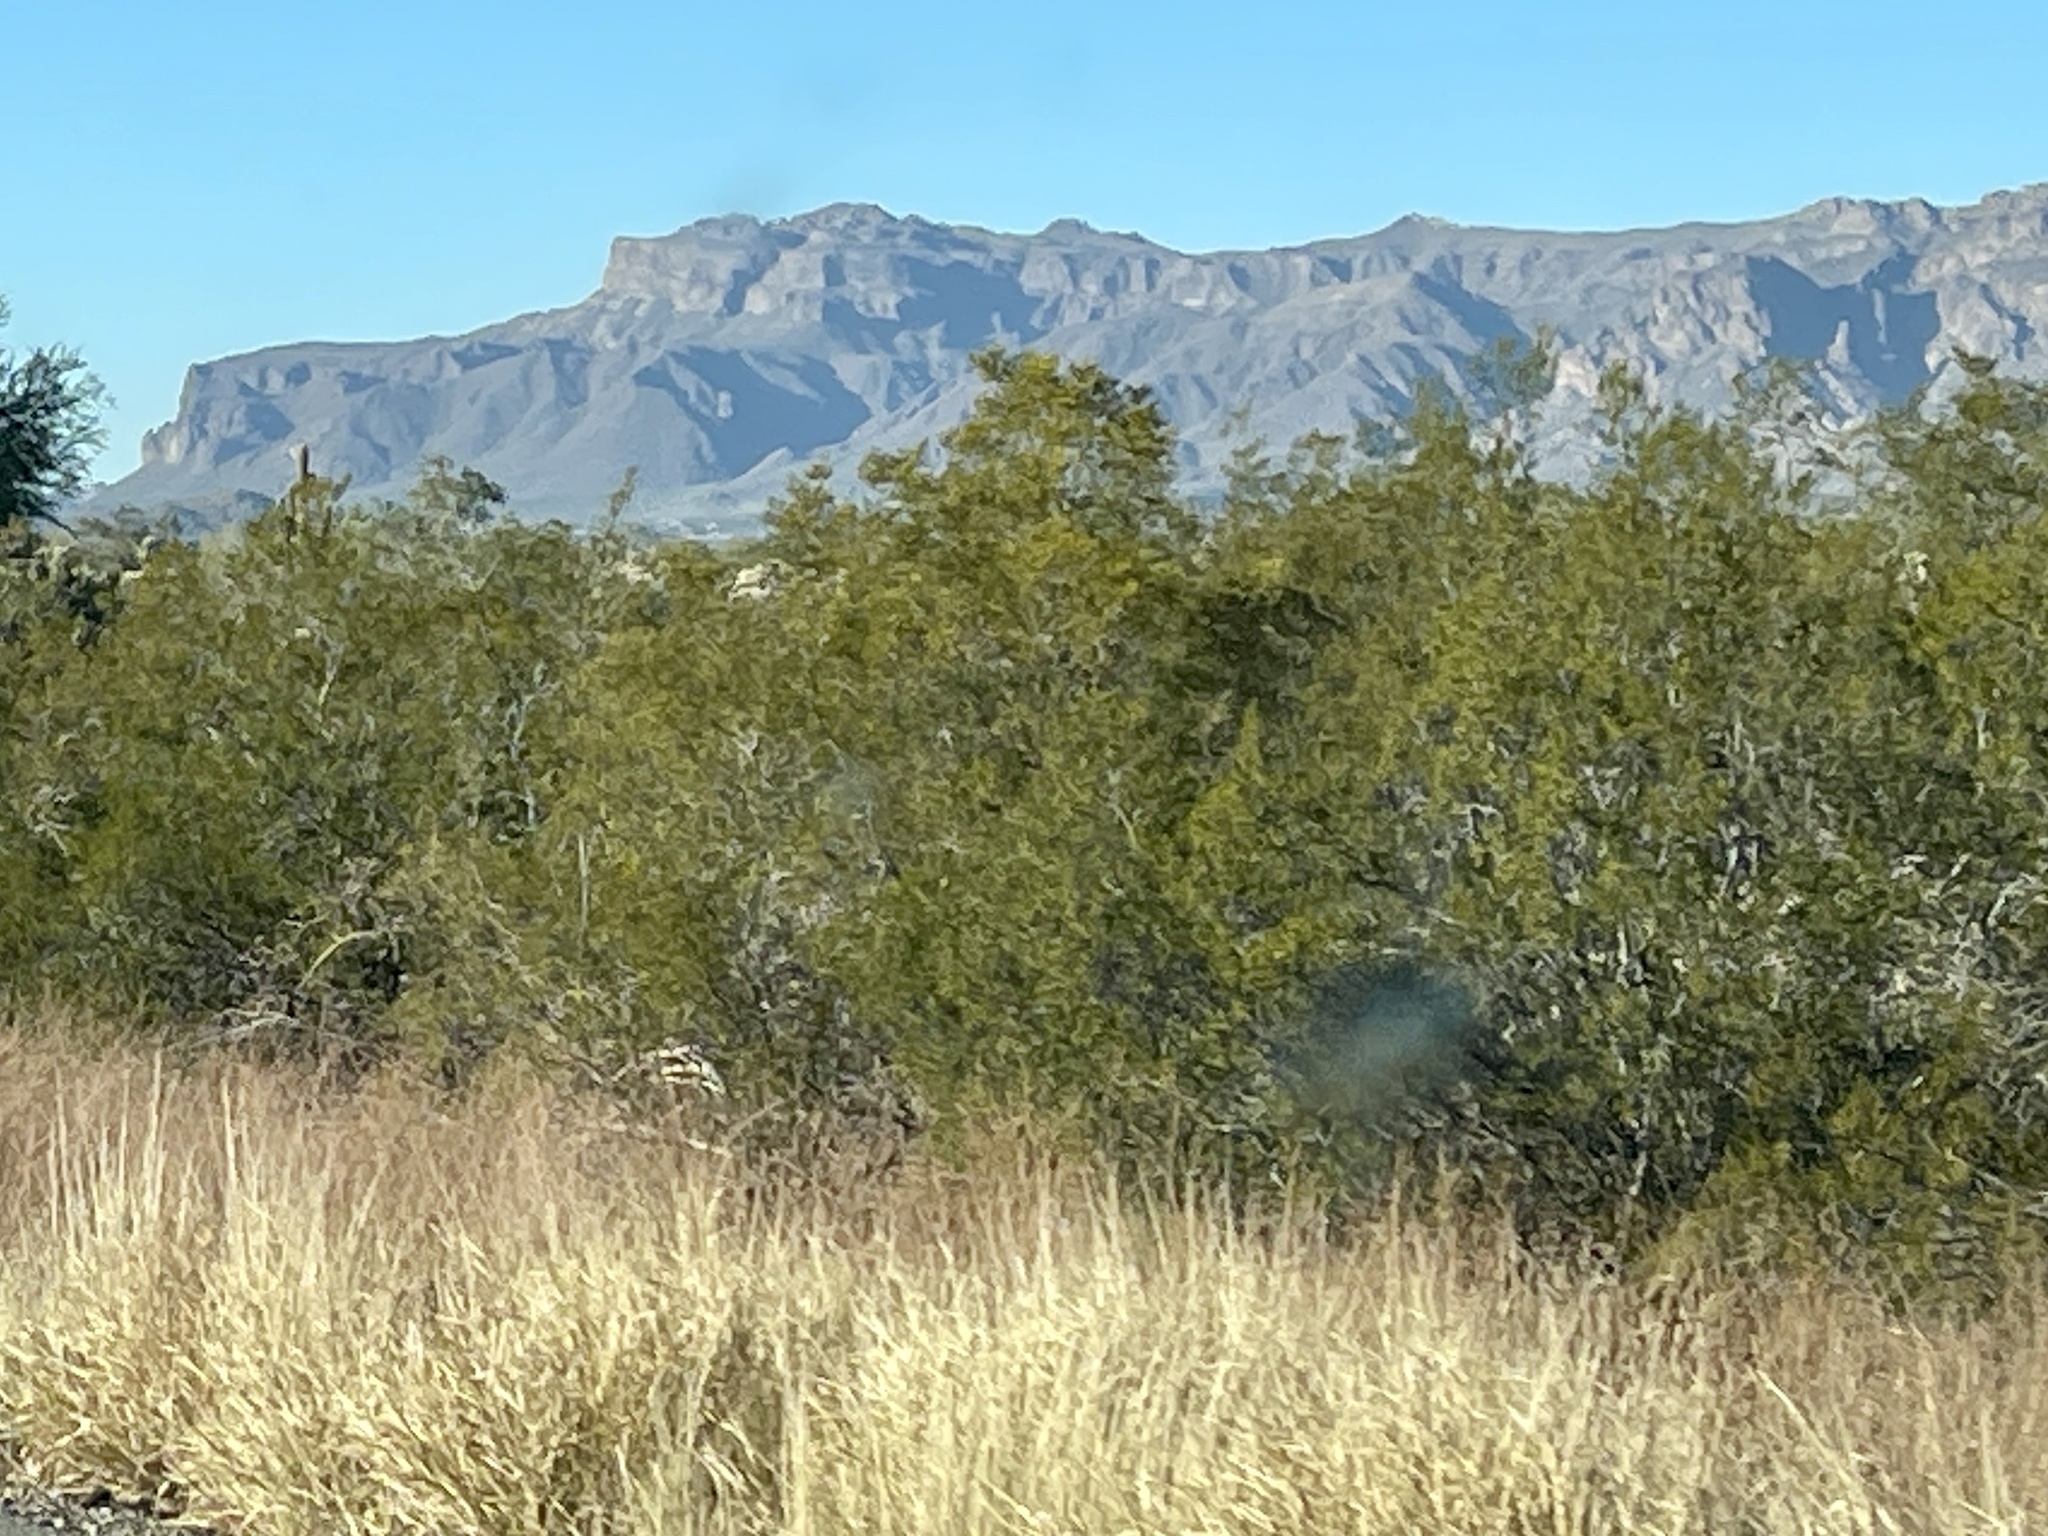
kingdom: Plantae
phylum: Tracheophyta
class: Magnoliopsida
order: Zygophyllales
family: Zygophyllaceae
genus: Larrea
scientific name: Larrea tridentata
